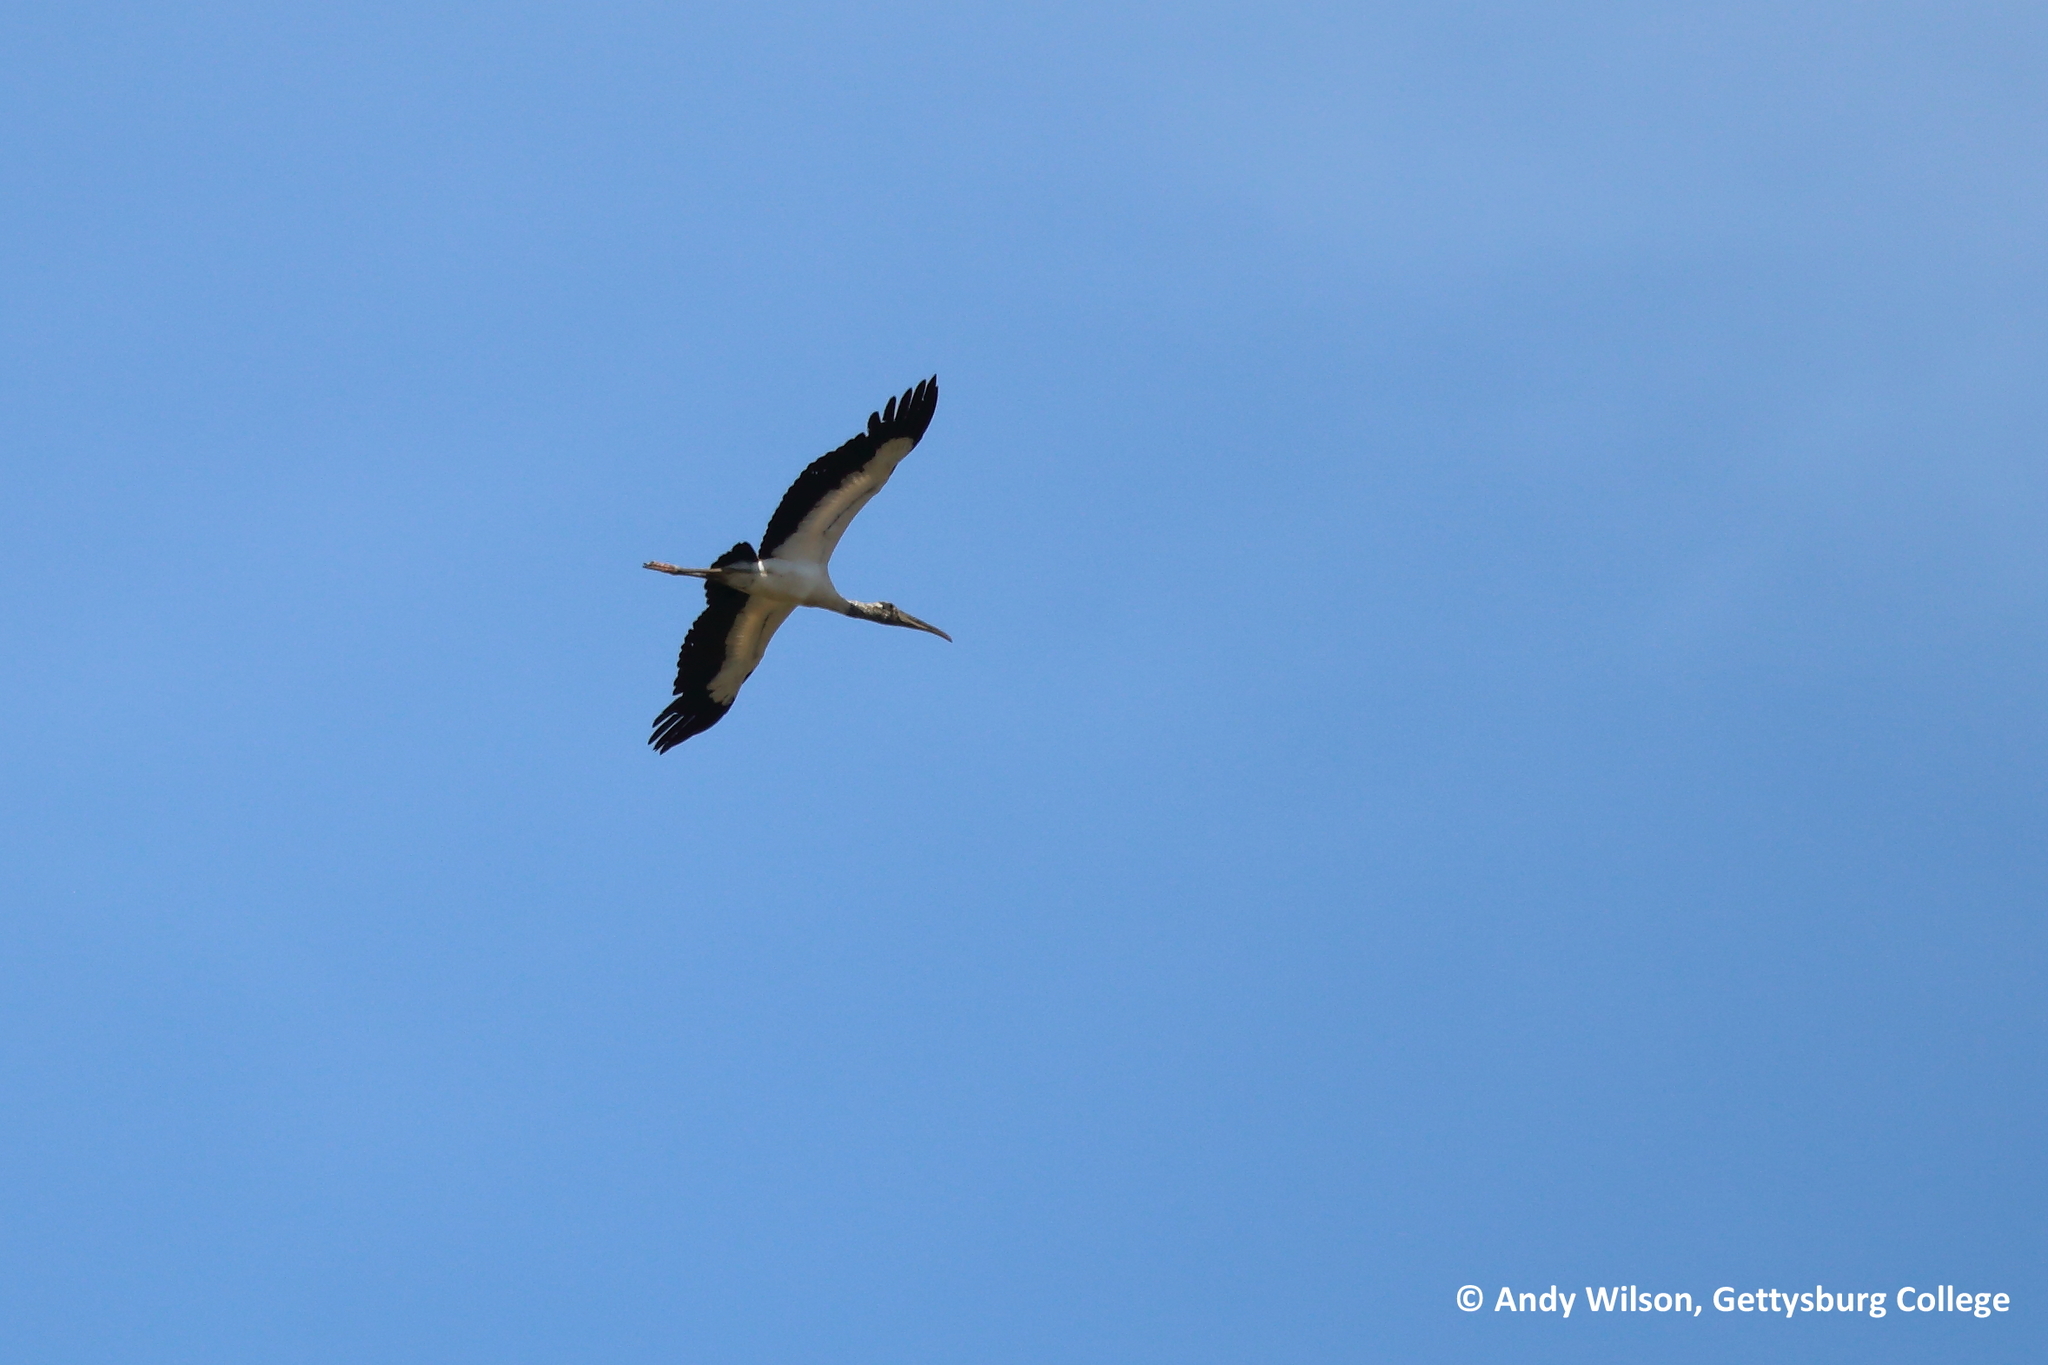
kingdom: Animalia
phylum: Chordata
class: Aves
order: Ciconiiformes
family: Ciconiidae
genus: Mycteria
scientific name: Mycteria americana
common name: Wood stork
